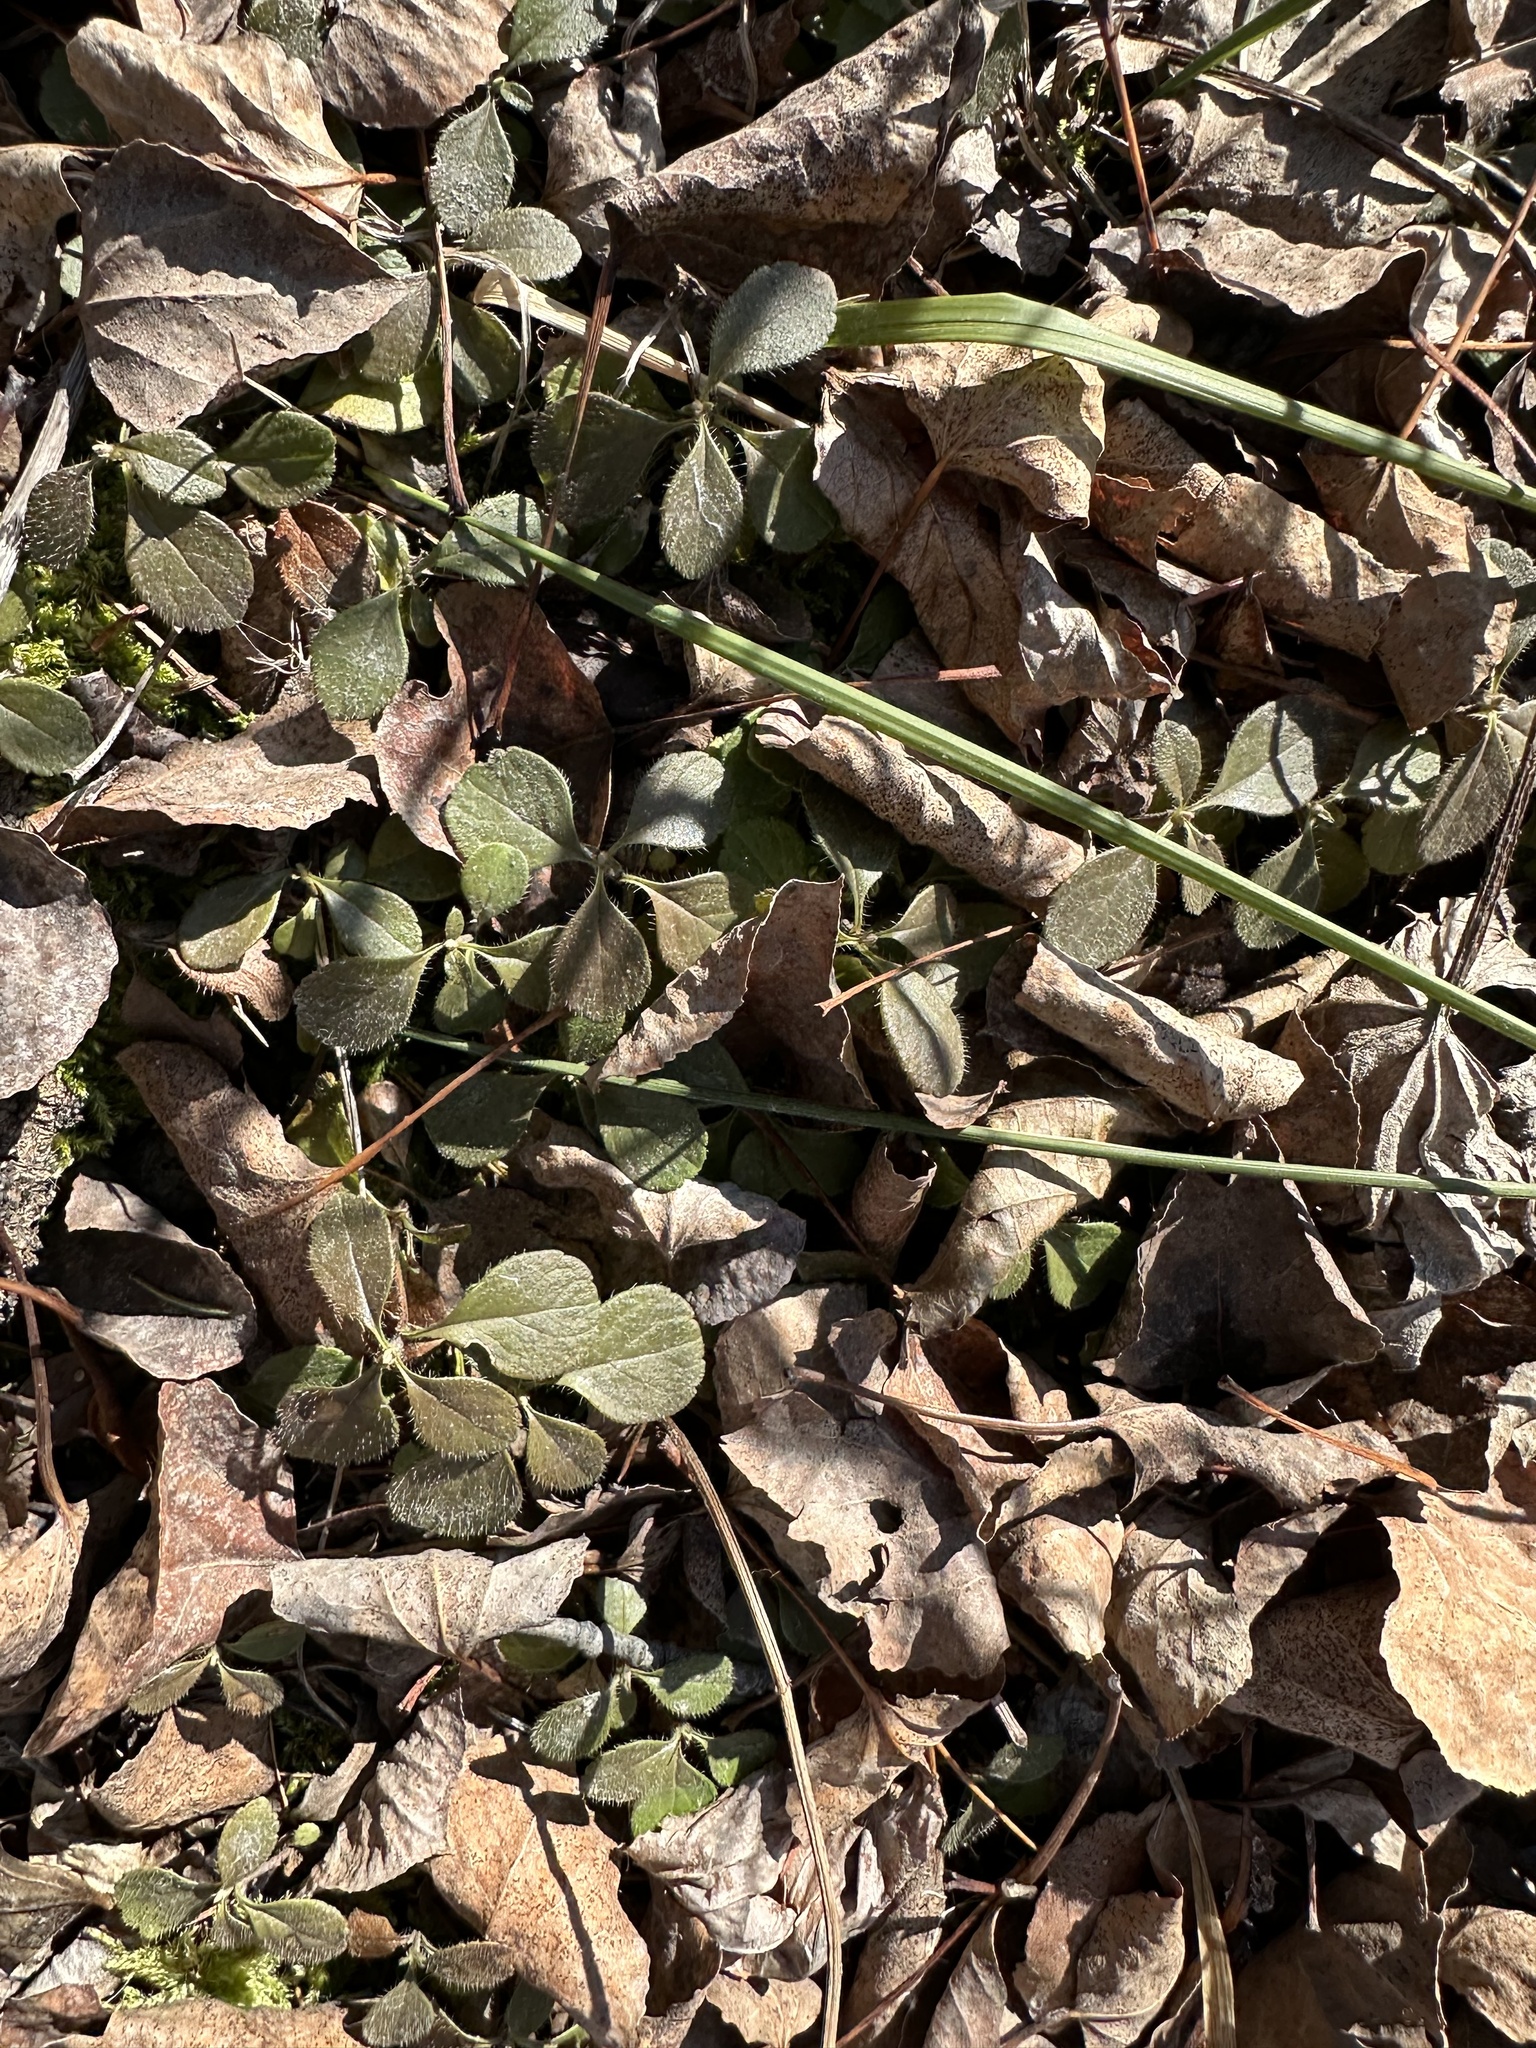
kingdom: Plantae
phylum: Tracheophyta
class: Magnoliopsida
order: Dipsacales
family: Caprifoliaceae
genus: Linnaea
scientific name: Linnaea borealis
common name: Twinflower
